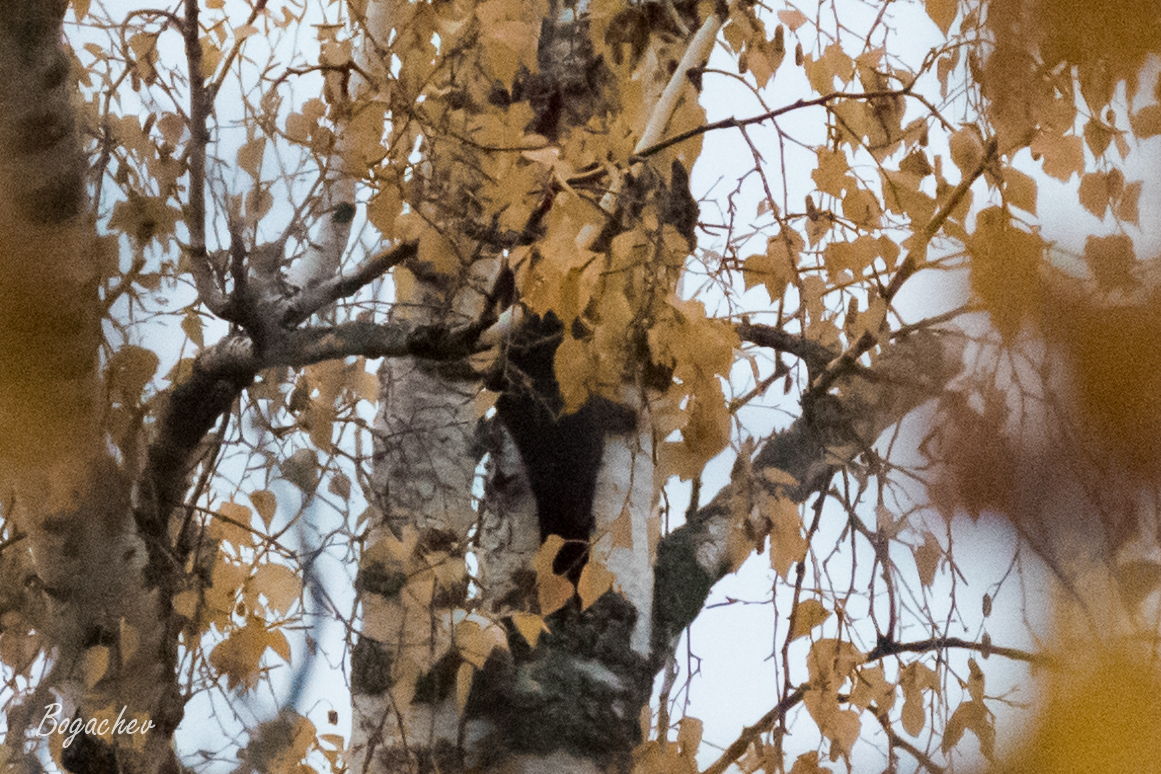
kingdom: Animalia
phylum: Chordata
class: Aves
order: Piciformes
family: Picidae
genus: Dryocopus
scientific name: Dryocopus martius
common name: Black woodpecker
